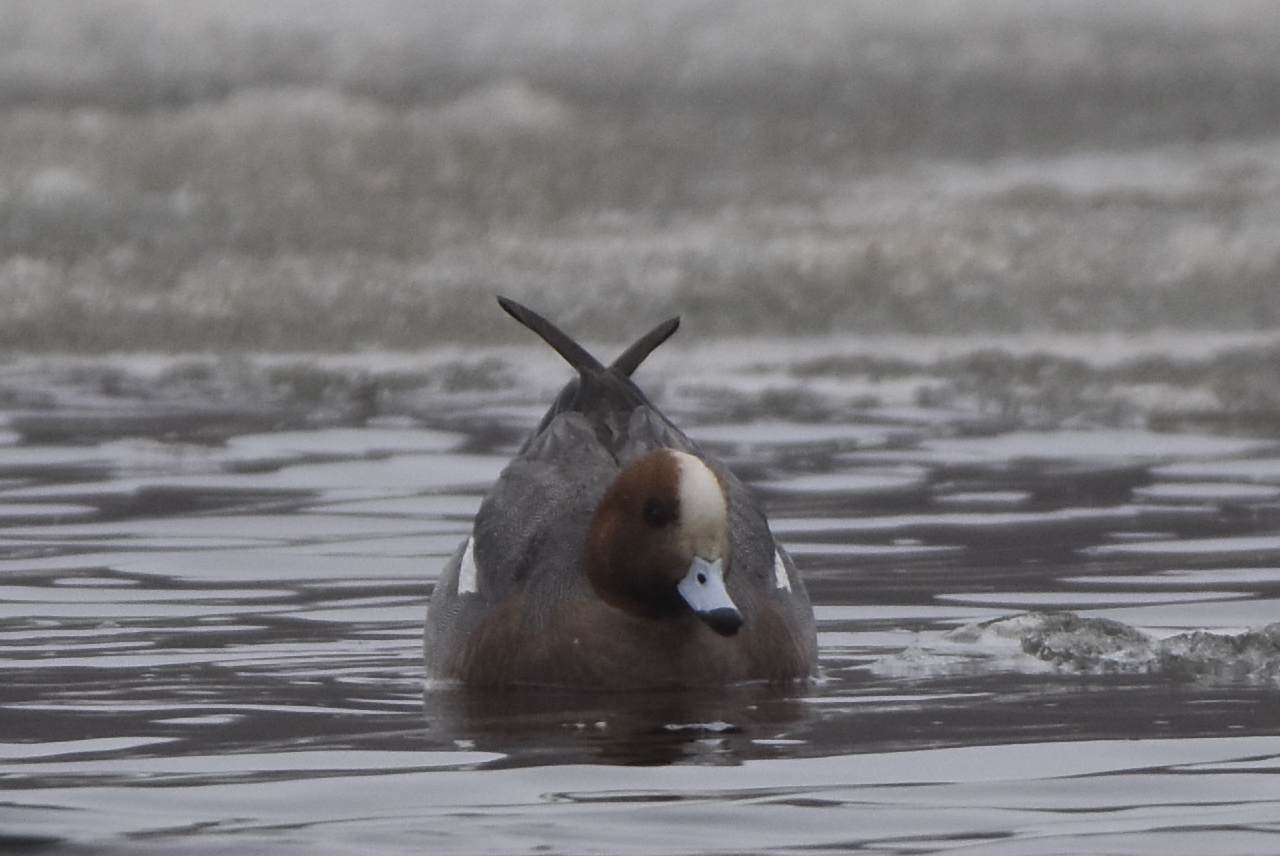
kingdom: Animalia
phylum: Chordata
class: Aves
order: Anseriformes
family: Anatidae
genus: Mareca
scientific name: Mareca penelope
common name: Eurasian wigeon
